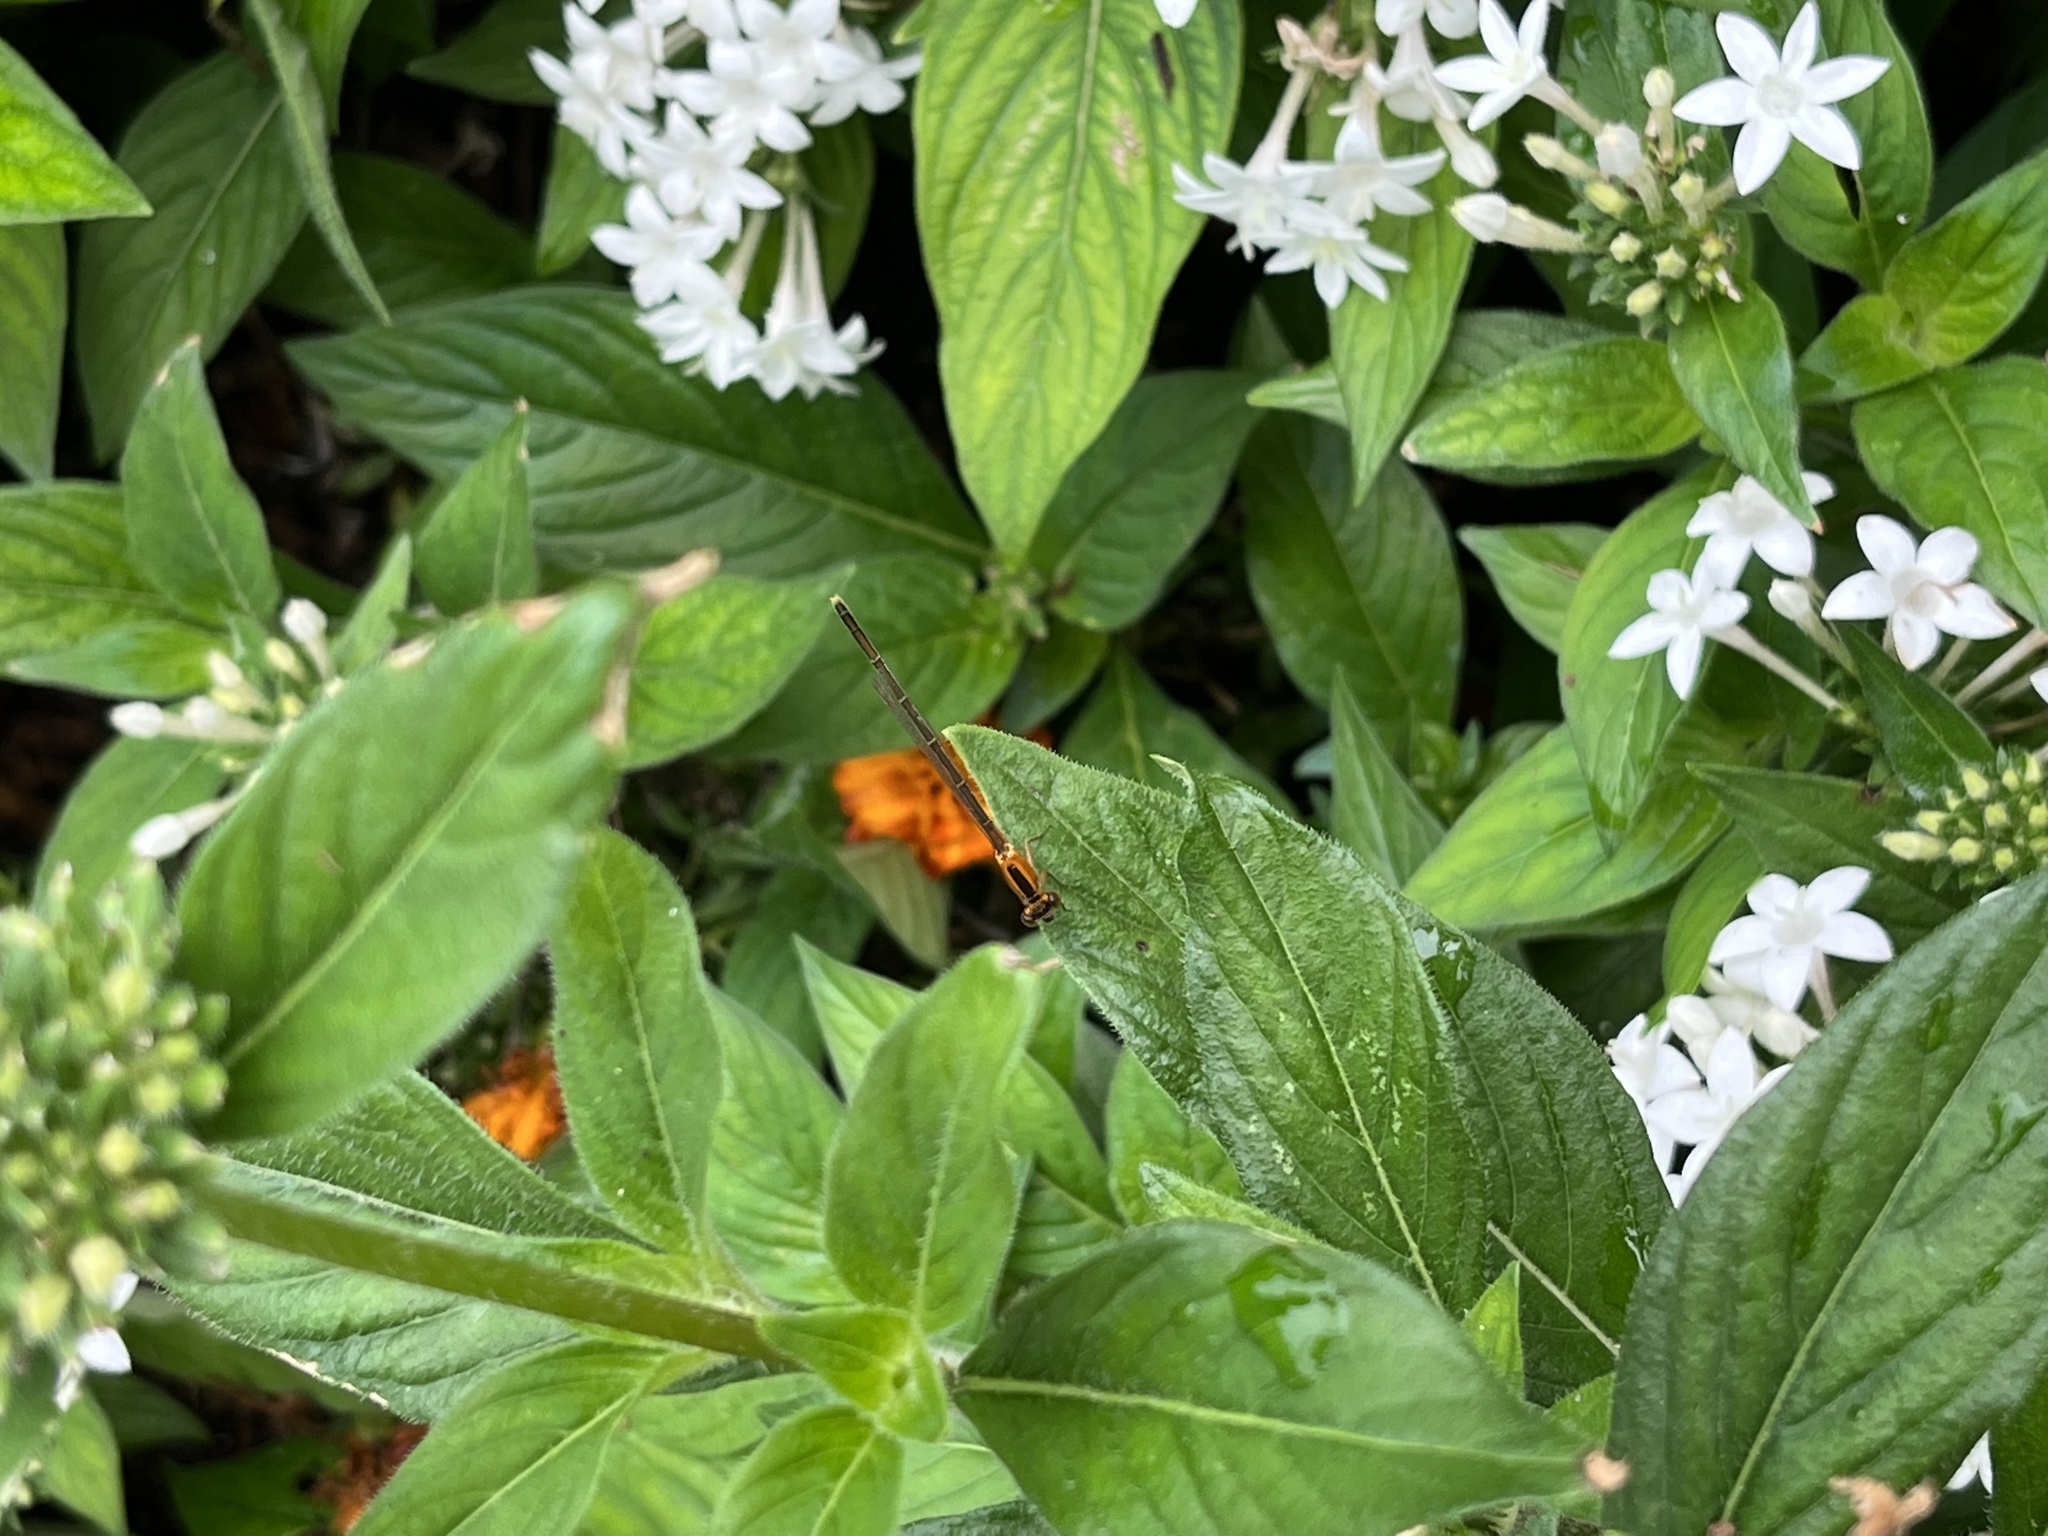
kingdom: Animalia
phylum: Arthropoda
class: Insecta
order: Odonata
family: Coenagrionidae
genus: Ischnura
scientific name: Ischnura ramburii
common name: Rambur's forktail
